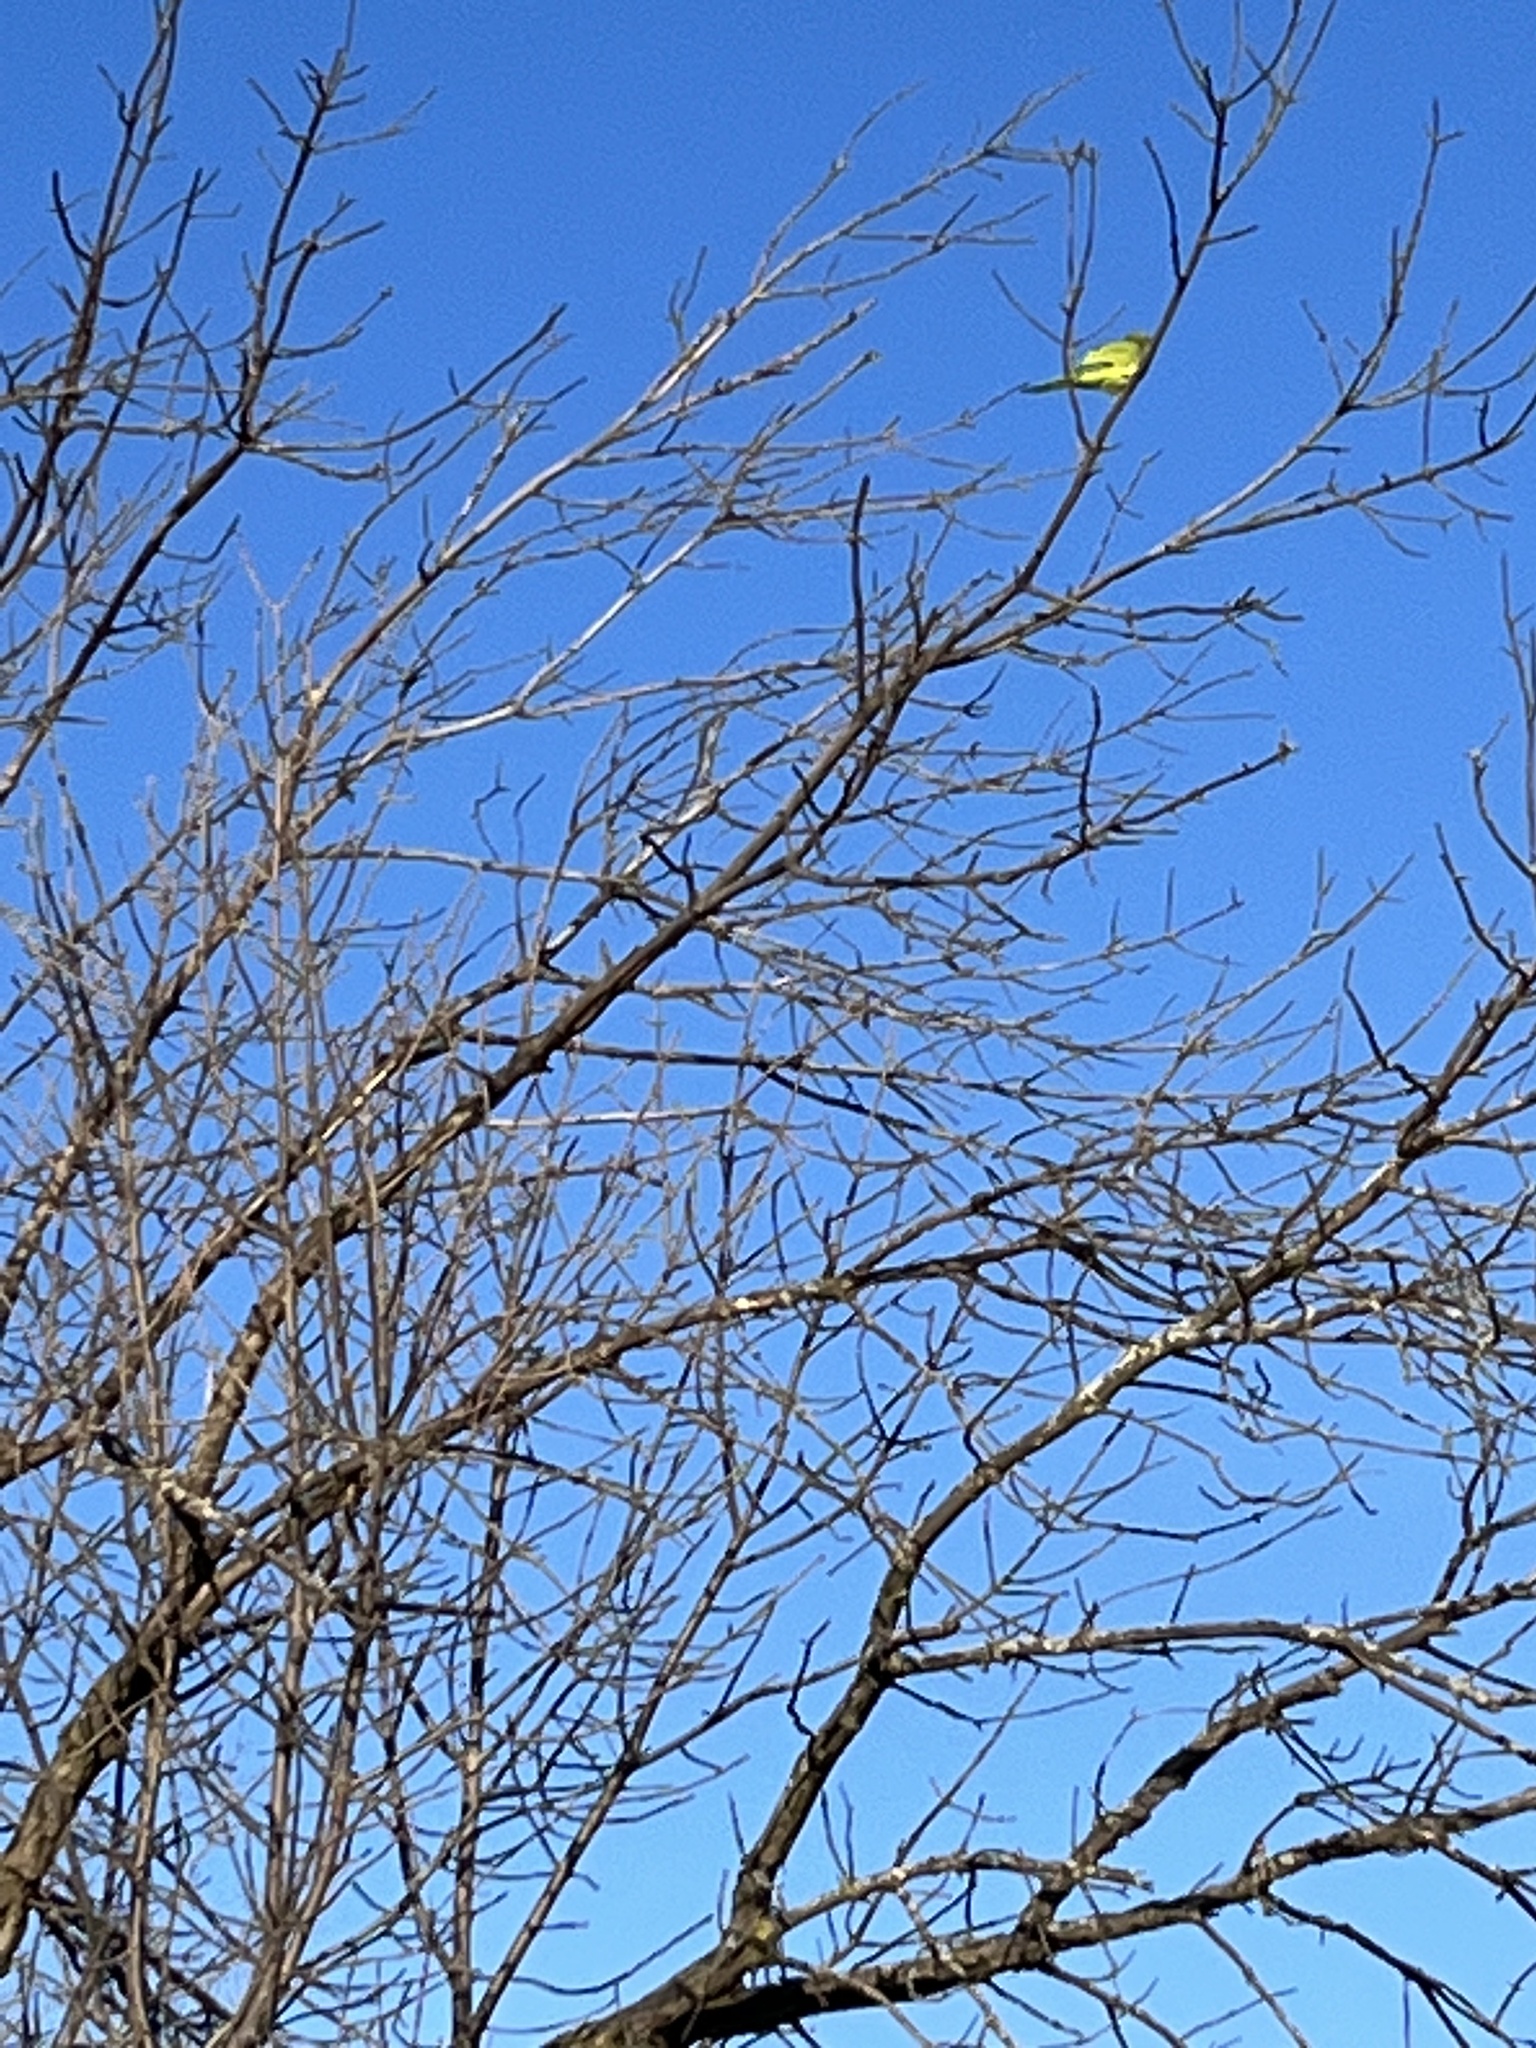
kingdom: Animalia
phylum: Chordata
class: Aves
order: Psittaciformes
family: Psittacidae
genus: Myiopsitta
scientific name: Myiopsitta monachus
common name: Monk parakeet
